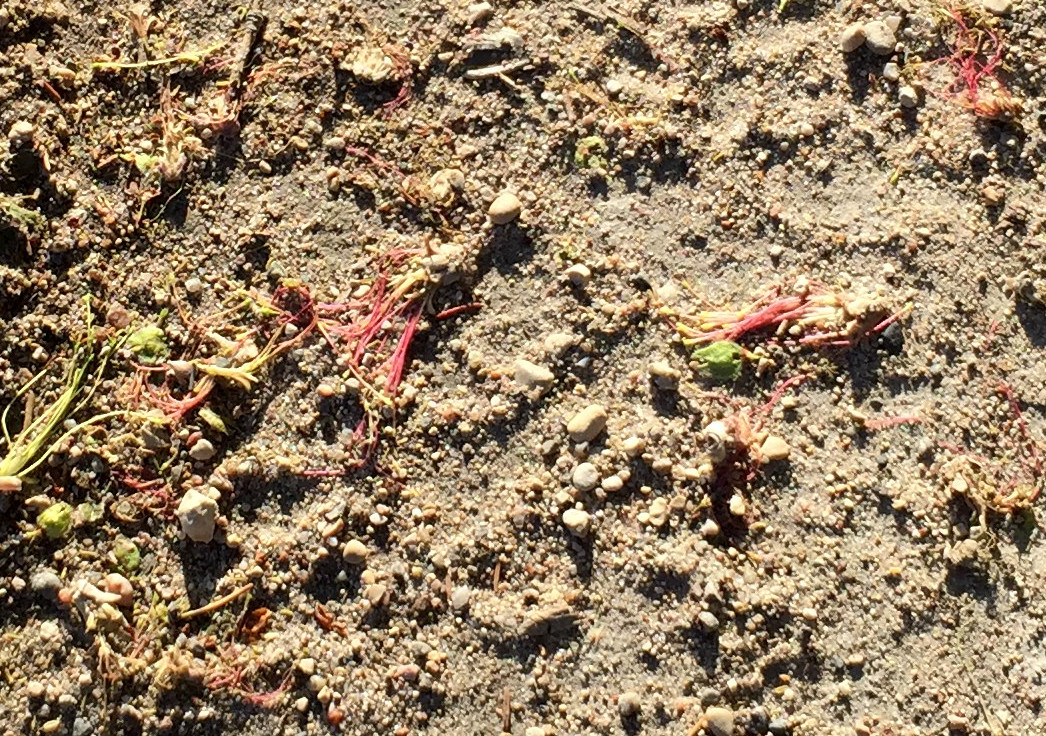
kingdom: Plantae
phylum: Tracheophyta
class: Magnoliopsida
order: Sapindales
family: Sapindaceae
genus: Acer
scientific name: Acer negundo
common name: Ashleaf maple
